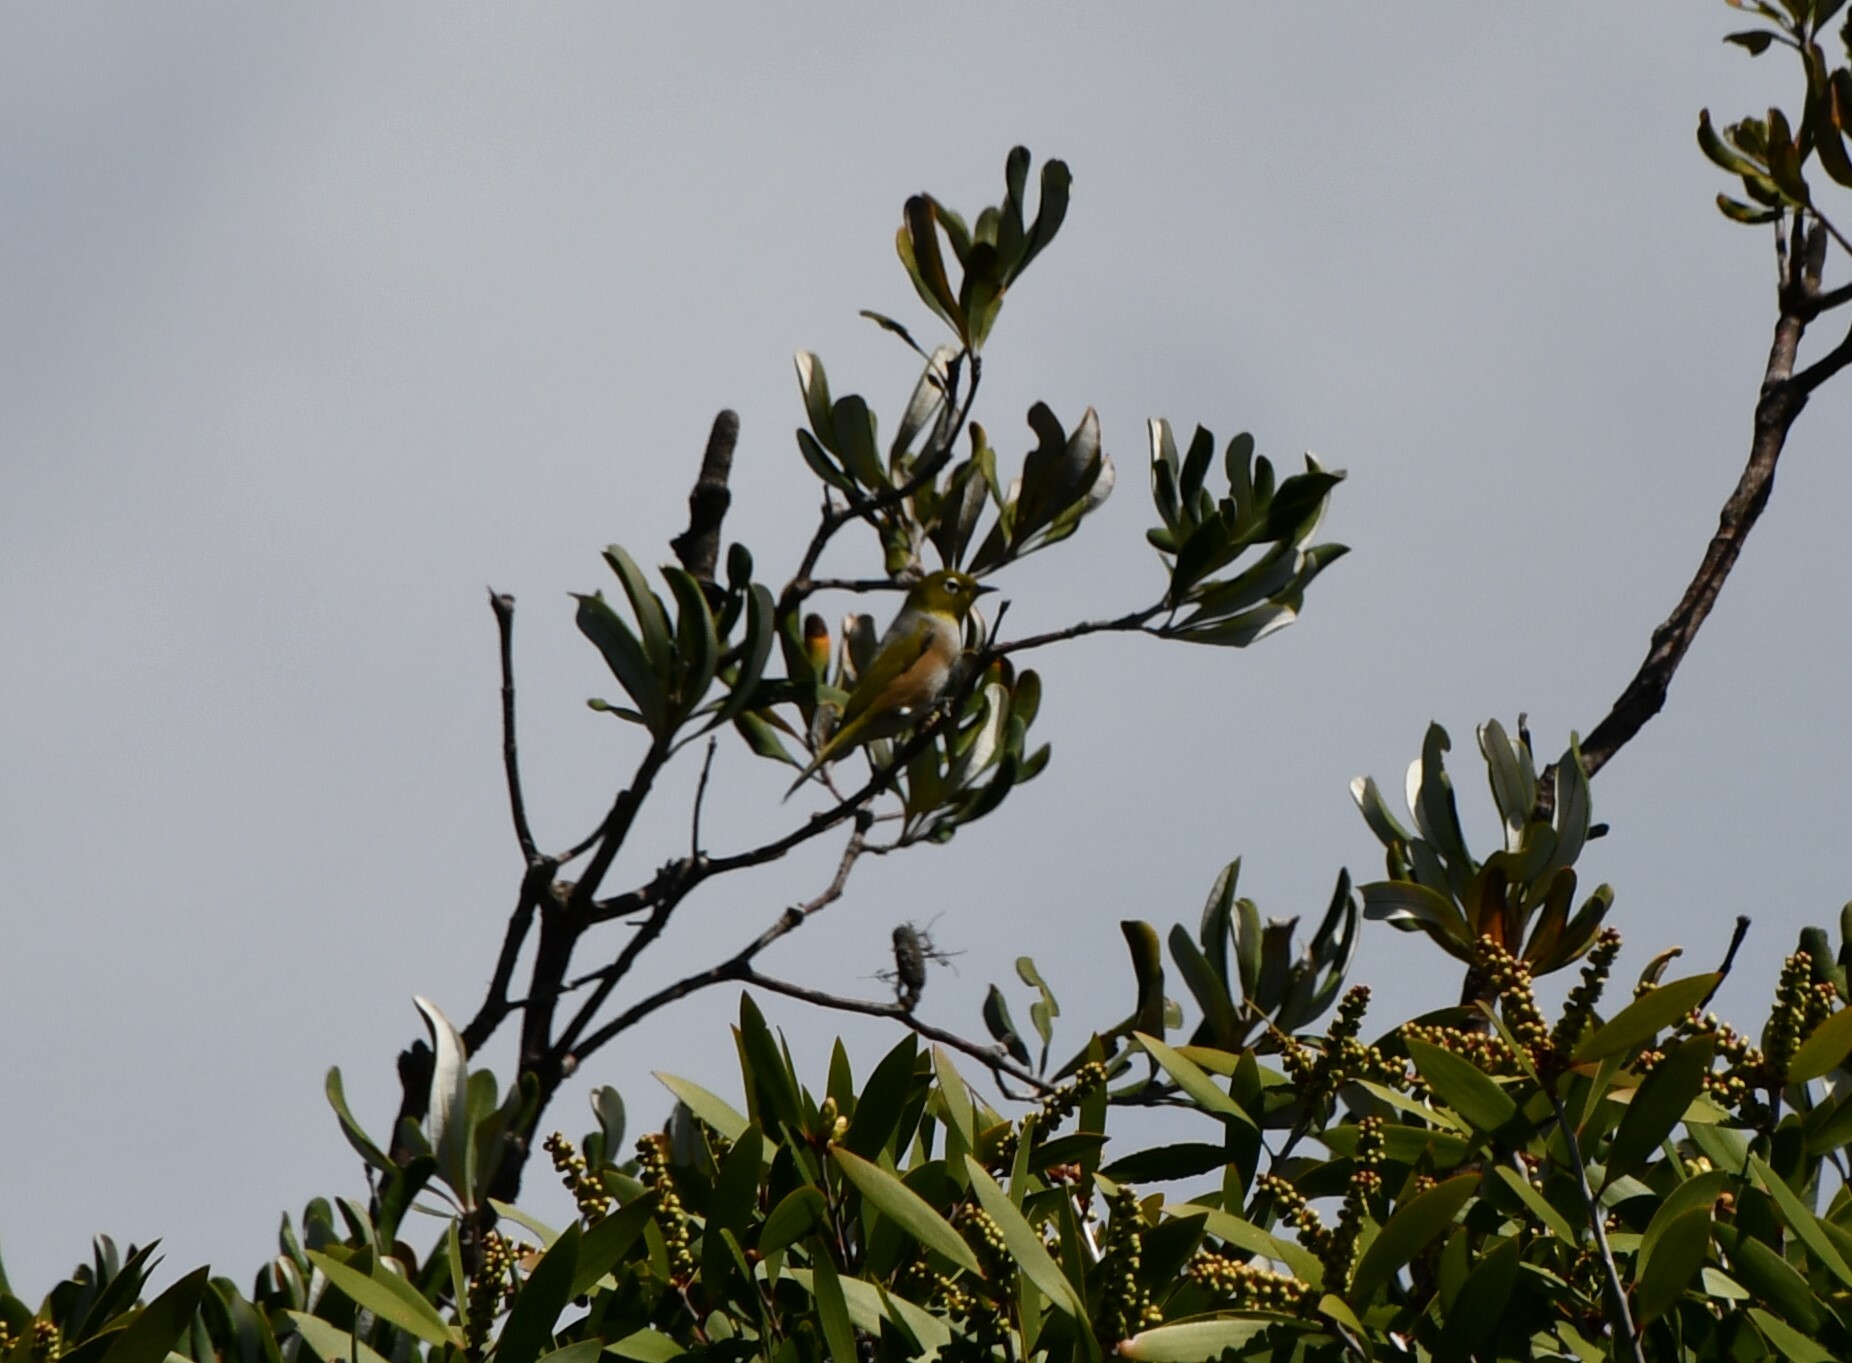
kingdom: Animalia
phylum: Chordata
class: Aves
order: Passeriformes
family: Zosteropidae
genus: Zosterops
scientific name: Zosterops lateralis
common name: Silvereye
